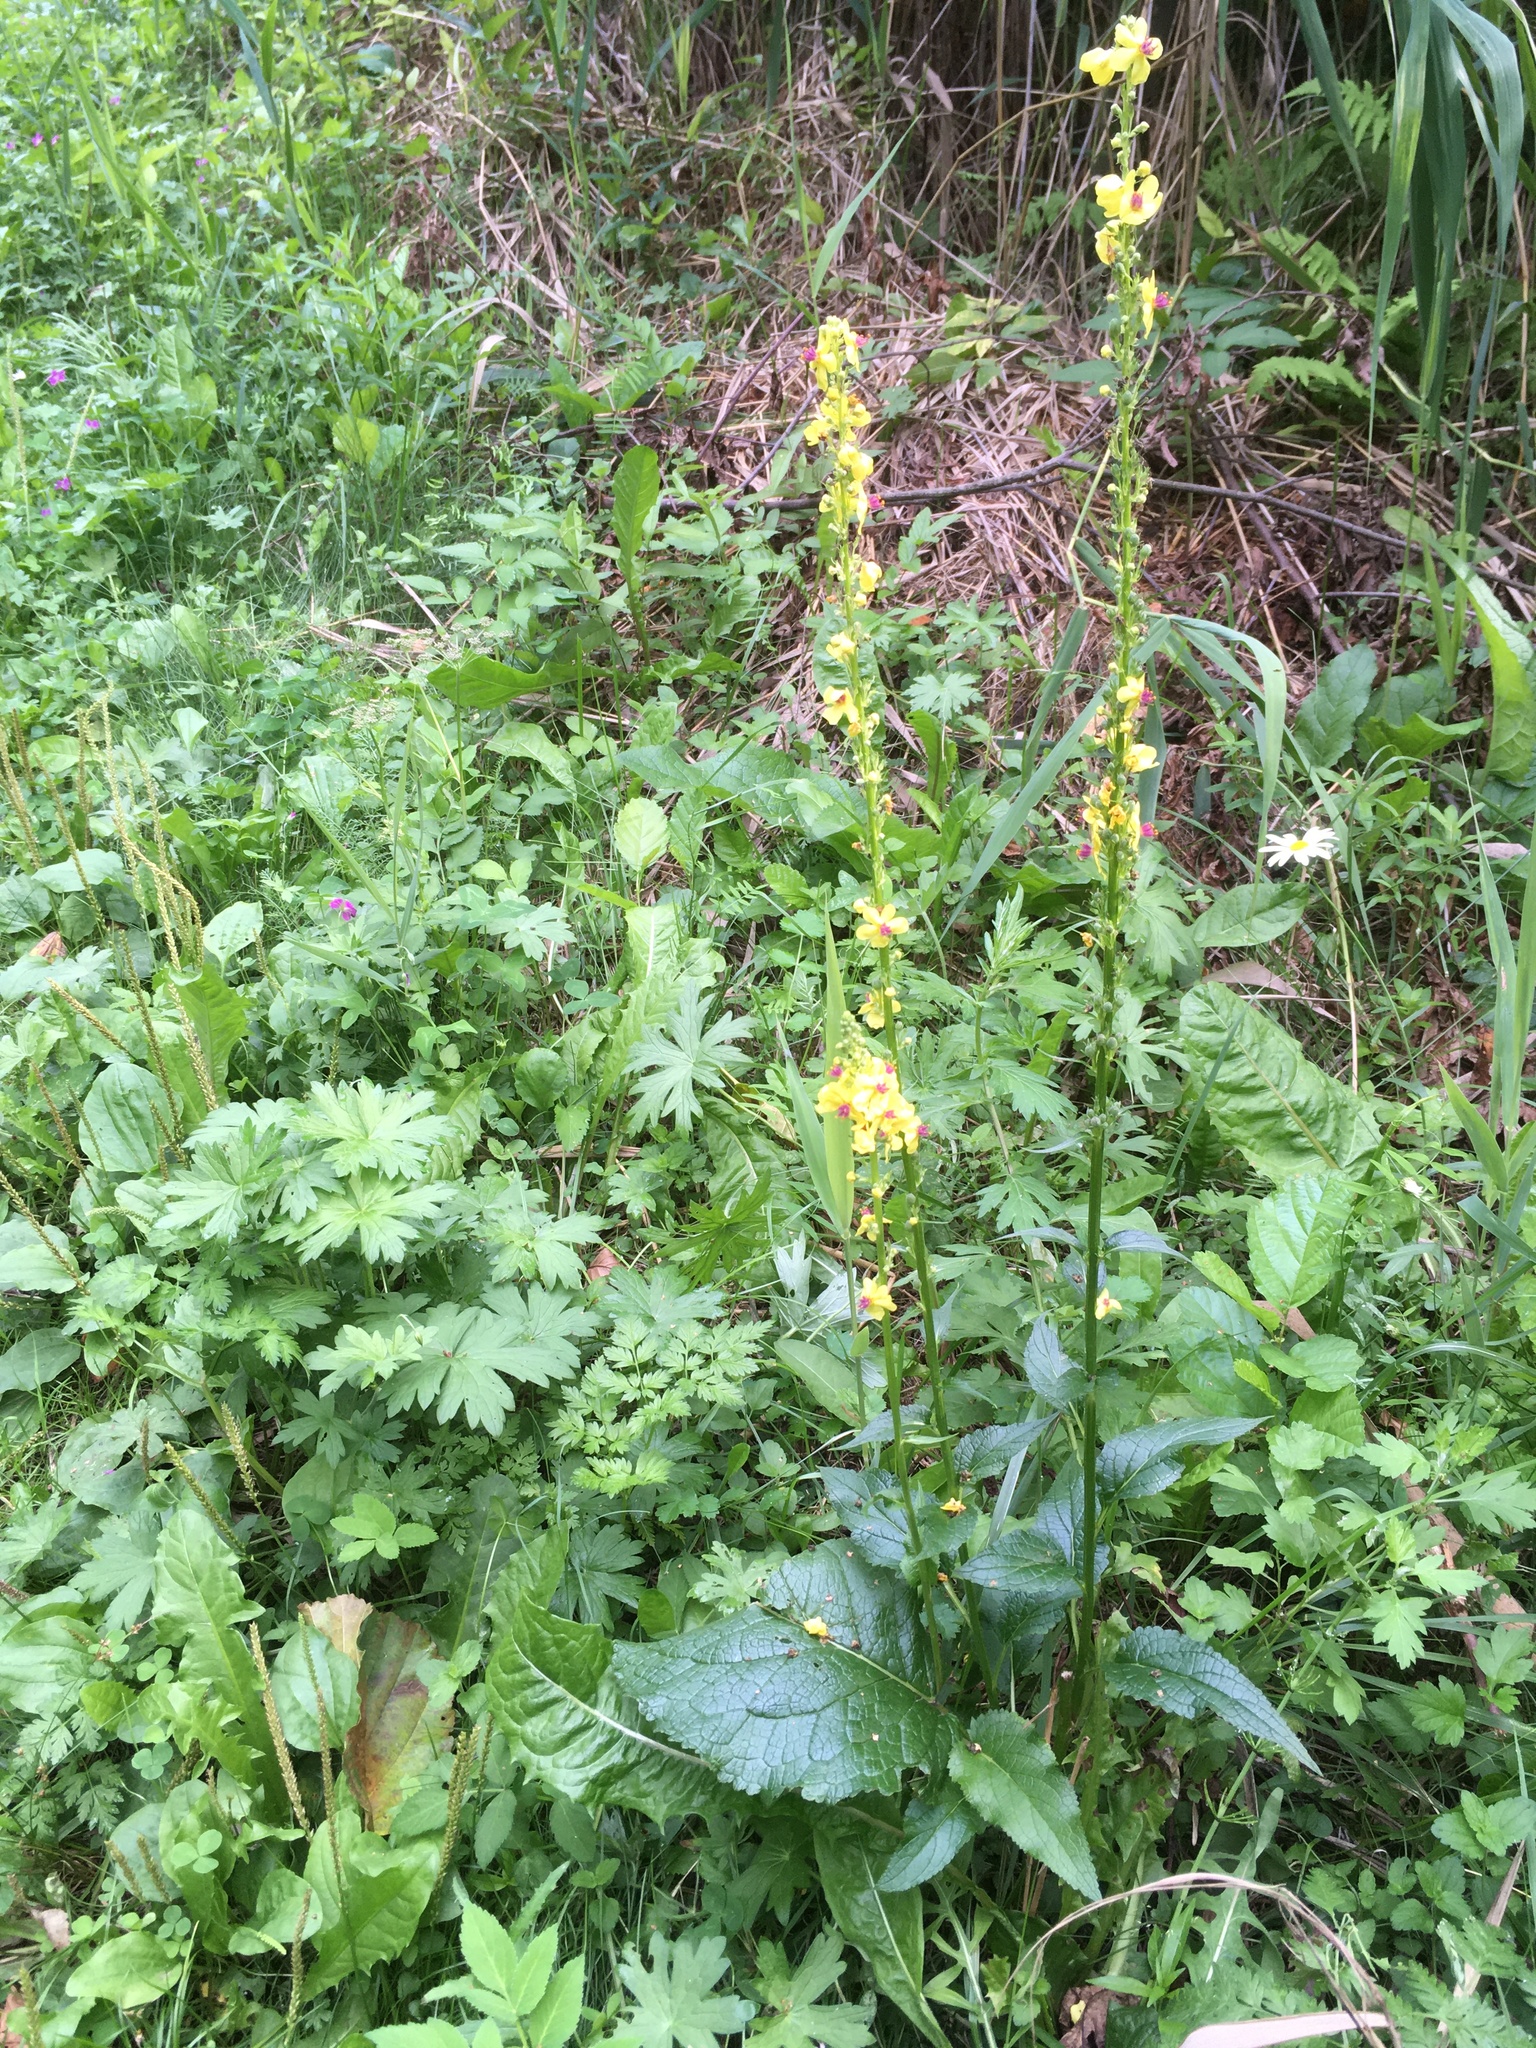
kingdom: Plantae
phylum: Tracheophyta
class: Magnoliopsida
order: Lamiales
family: Scrophulariaceae
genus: Verbascum
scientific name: Verbascum nigrum
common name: Dark mullein
